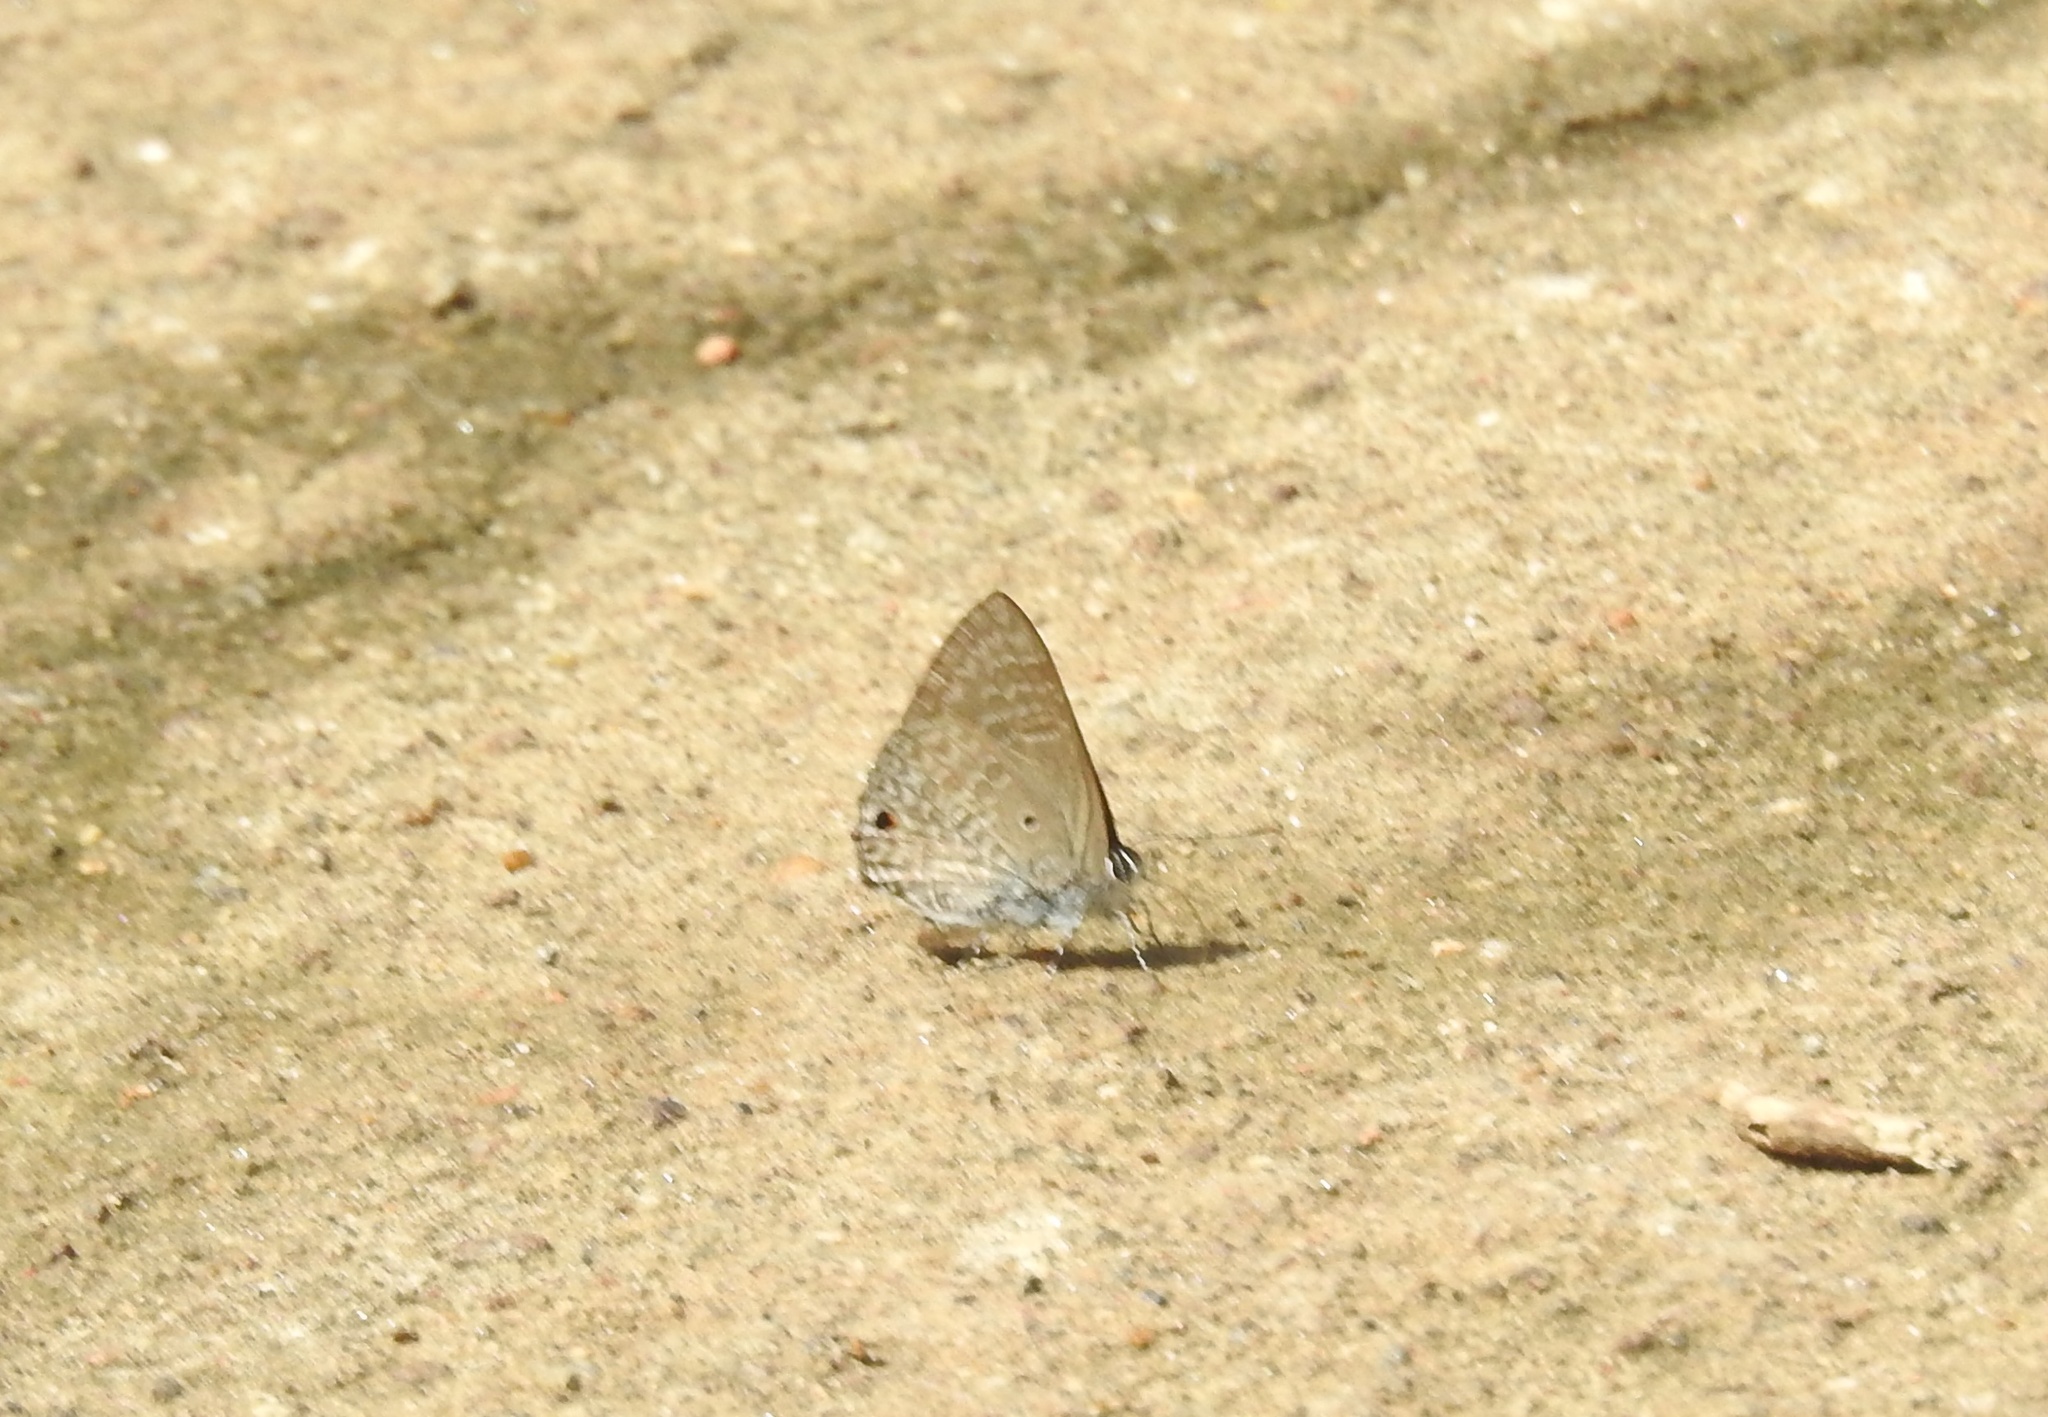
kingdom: Animalia
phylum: Arthropoda
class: Insecta
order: Lepidoptera
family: Lycaenidae
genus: Anthene
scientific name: Anthene lycaenina
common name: Pointed ciliate blue
